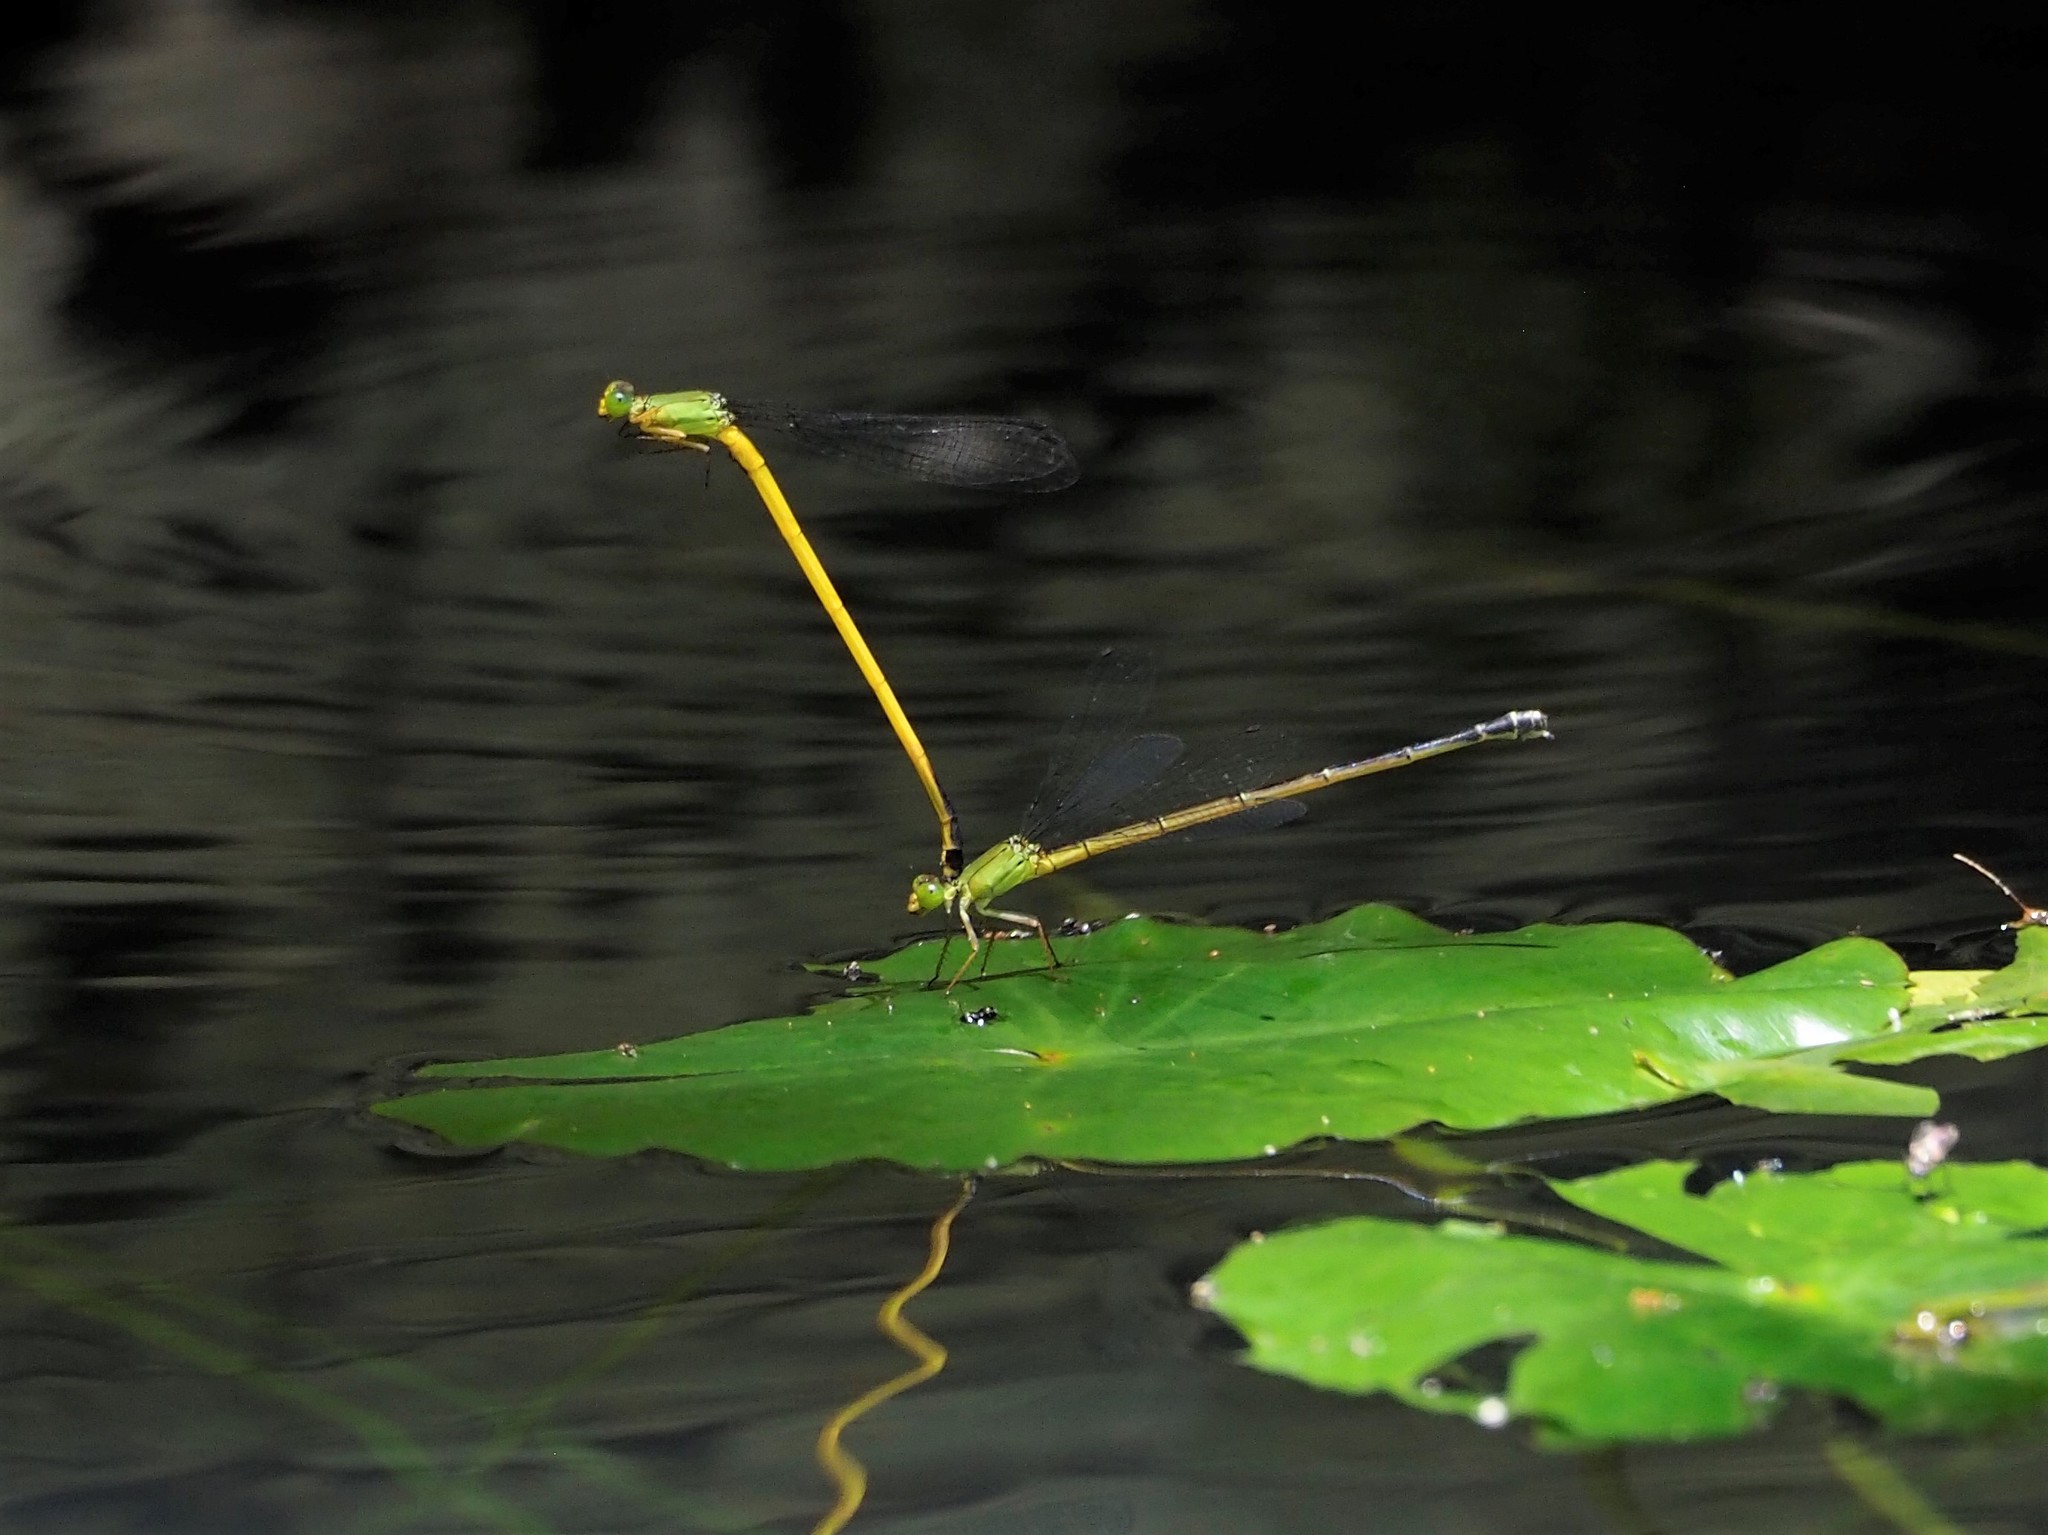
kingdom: Animalia
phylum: Arthropoda
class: Insecta
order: Odonata
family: Coenagrionidae
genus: Ceriagrion
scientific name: Ceriagrion fallax
